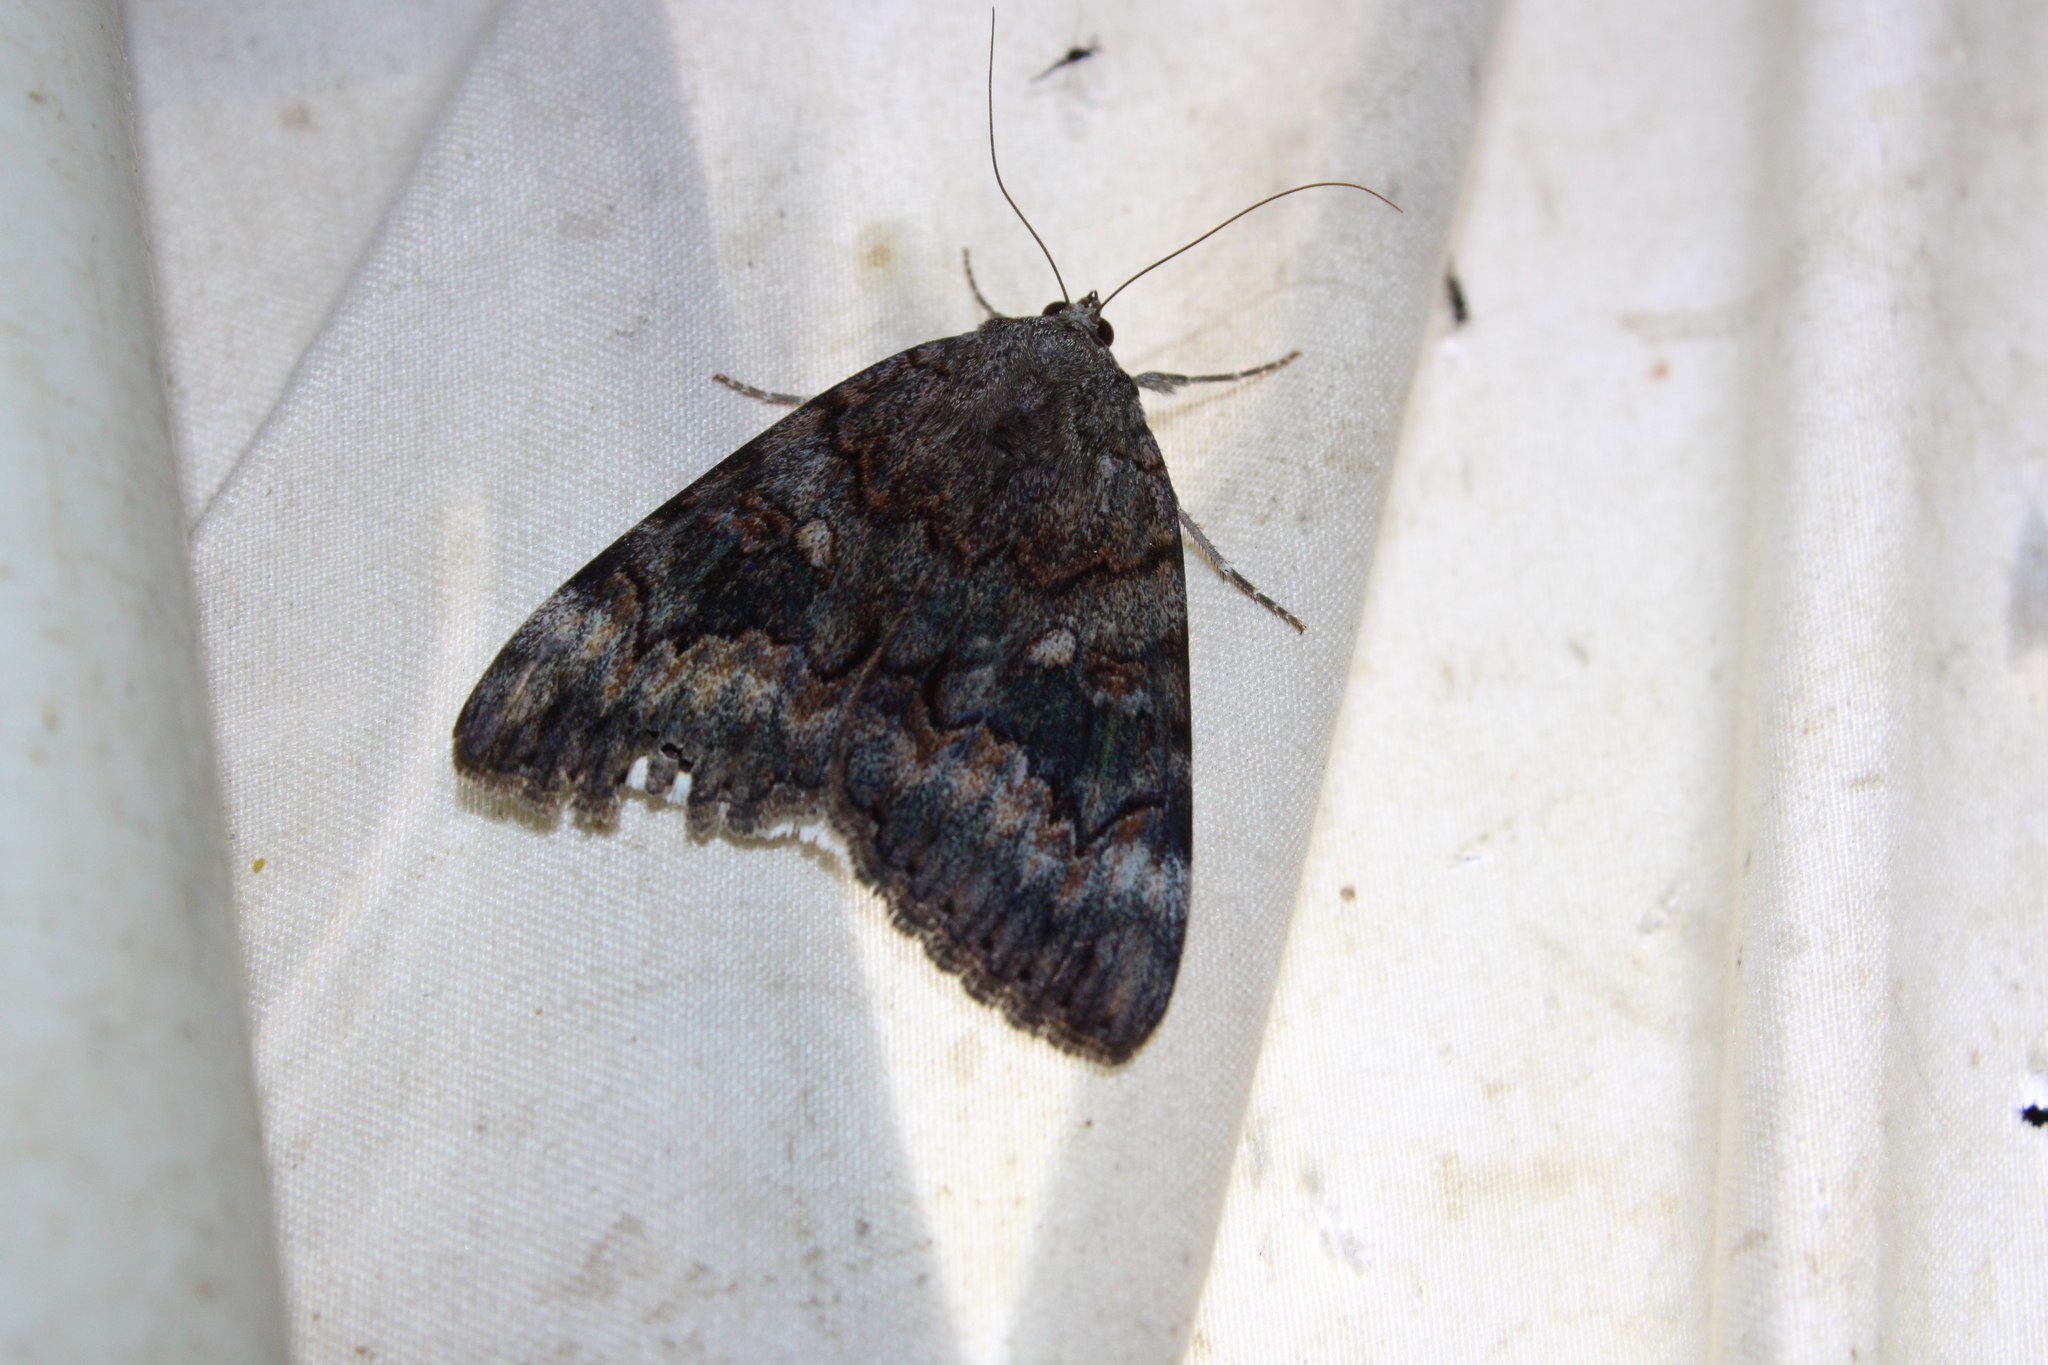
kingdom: Animalia
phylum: Arthropoda
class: Insecta
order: Lepidoptera
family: Erebidae
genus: Catocala
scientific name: Catocala epione
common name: Epione underwing
